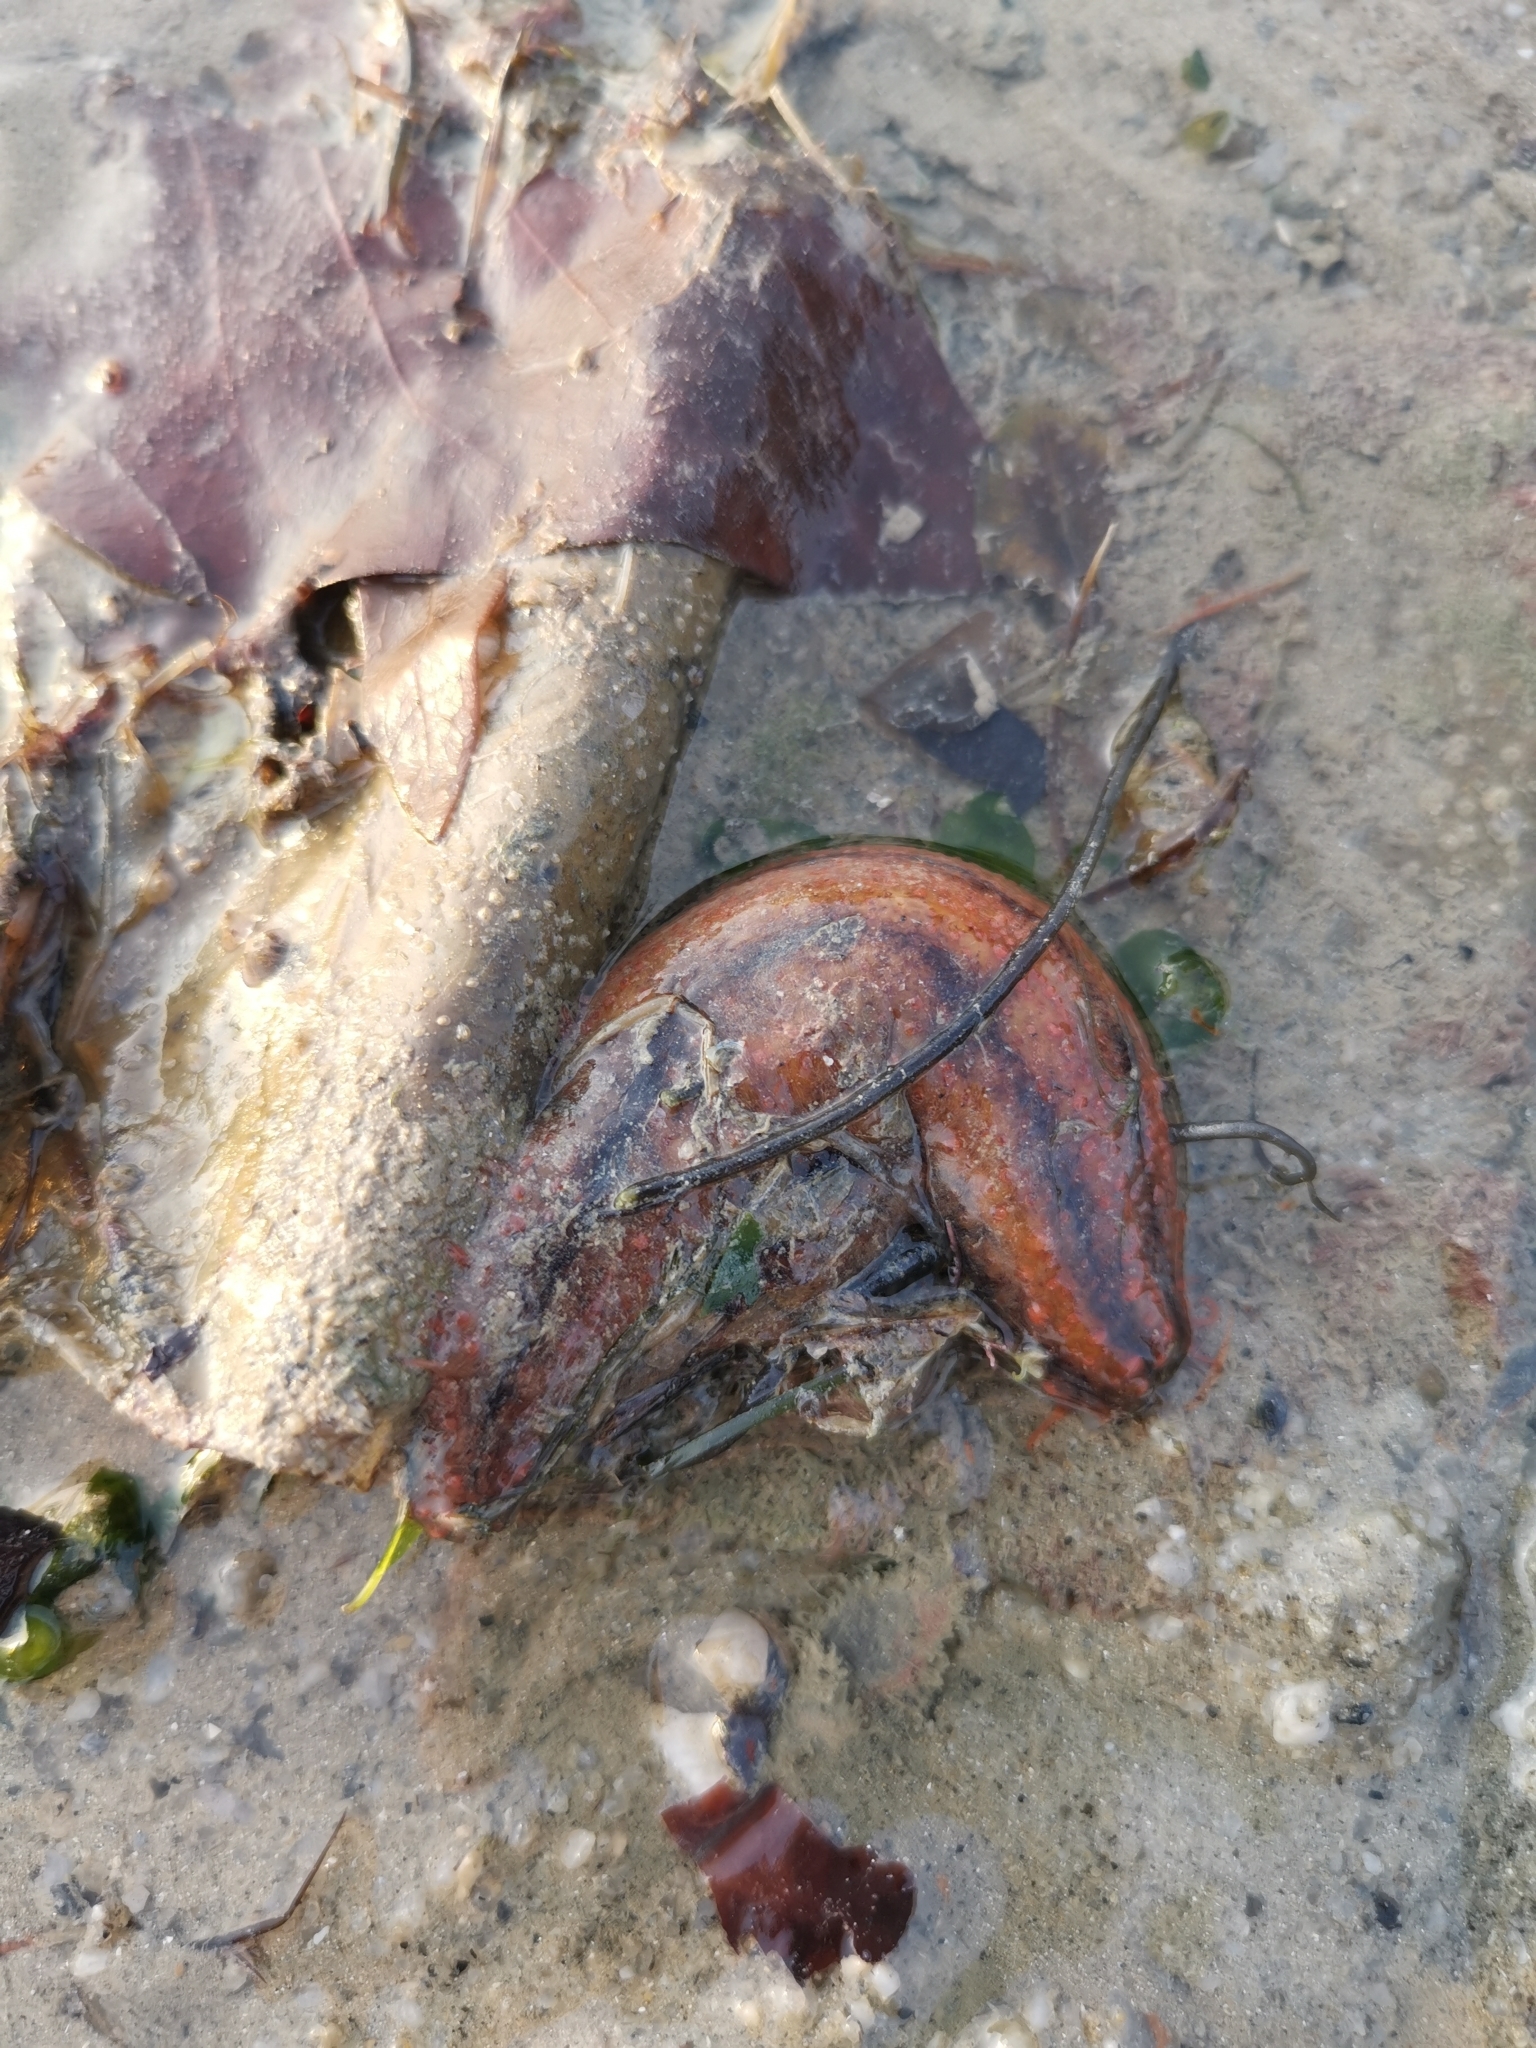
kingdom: Animalia
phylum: Echinodermata
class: Holothuroidea
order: Dendrochirotida
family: Cucumariidae
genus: Mensamaria
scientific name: Mensamaria intercedens
